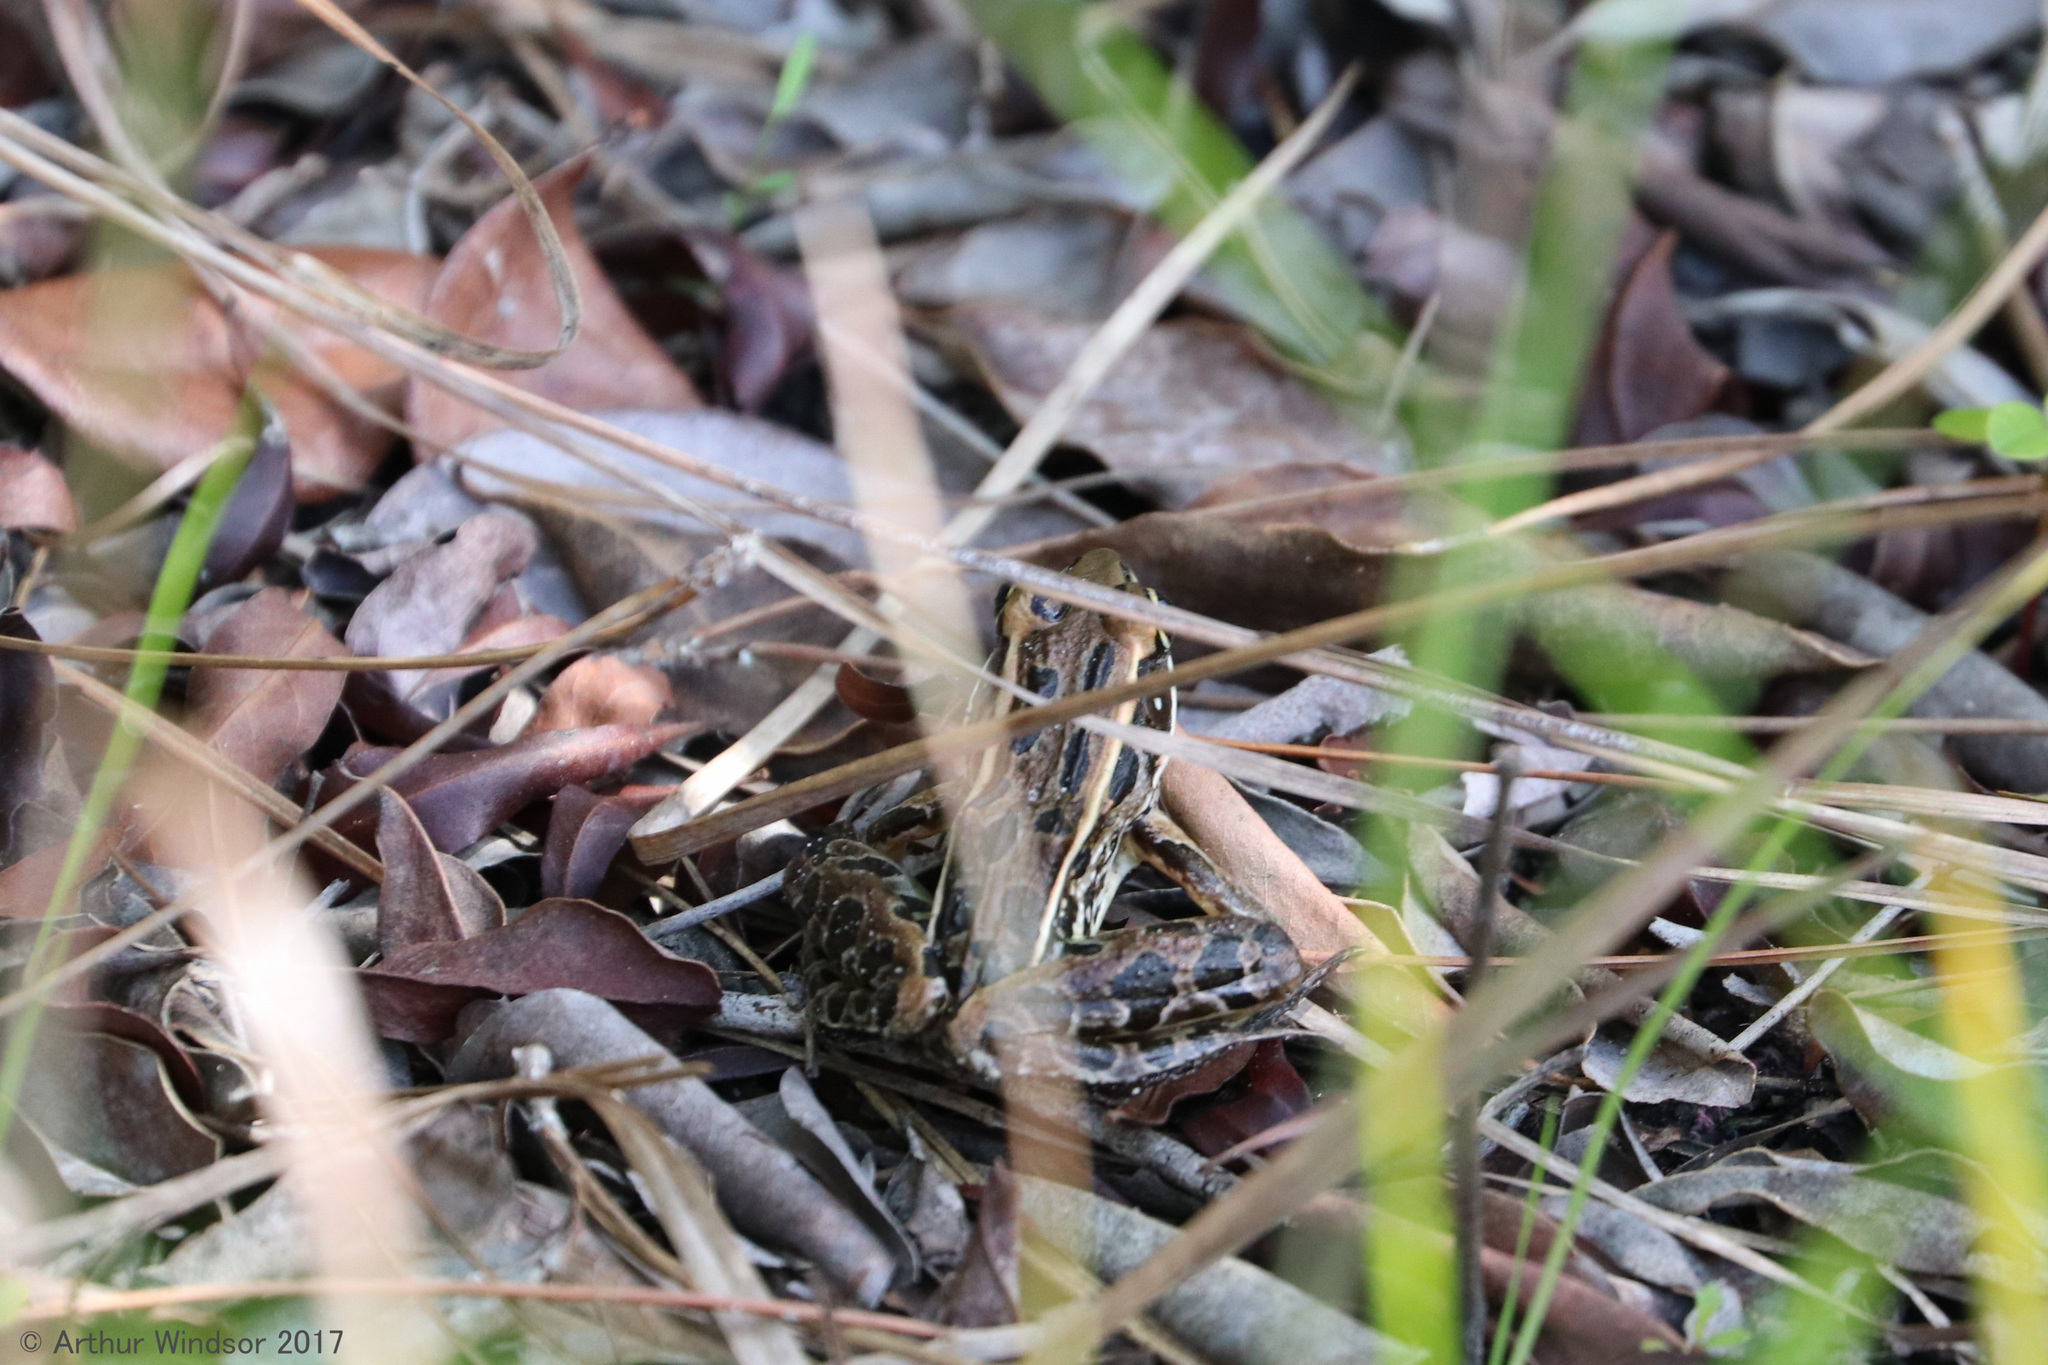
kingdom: Animalia
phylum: Chordata
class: Amphibia
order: Anura
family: Ranidae
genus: Lithobates
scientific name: Lithobates sphenocephalus
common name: Southern leopard frog
